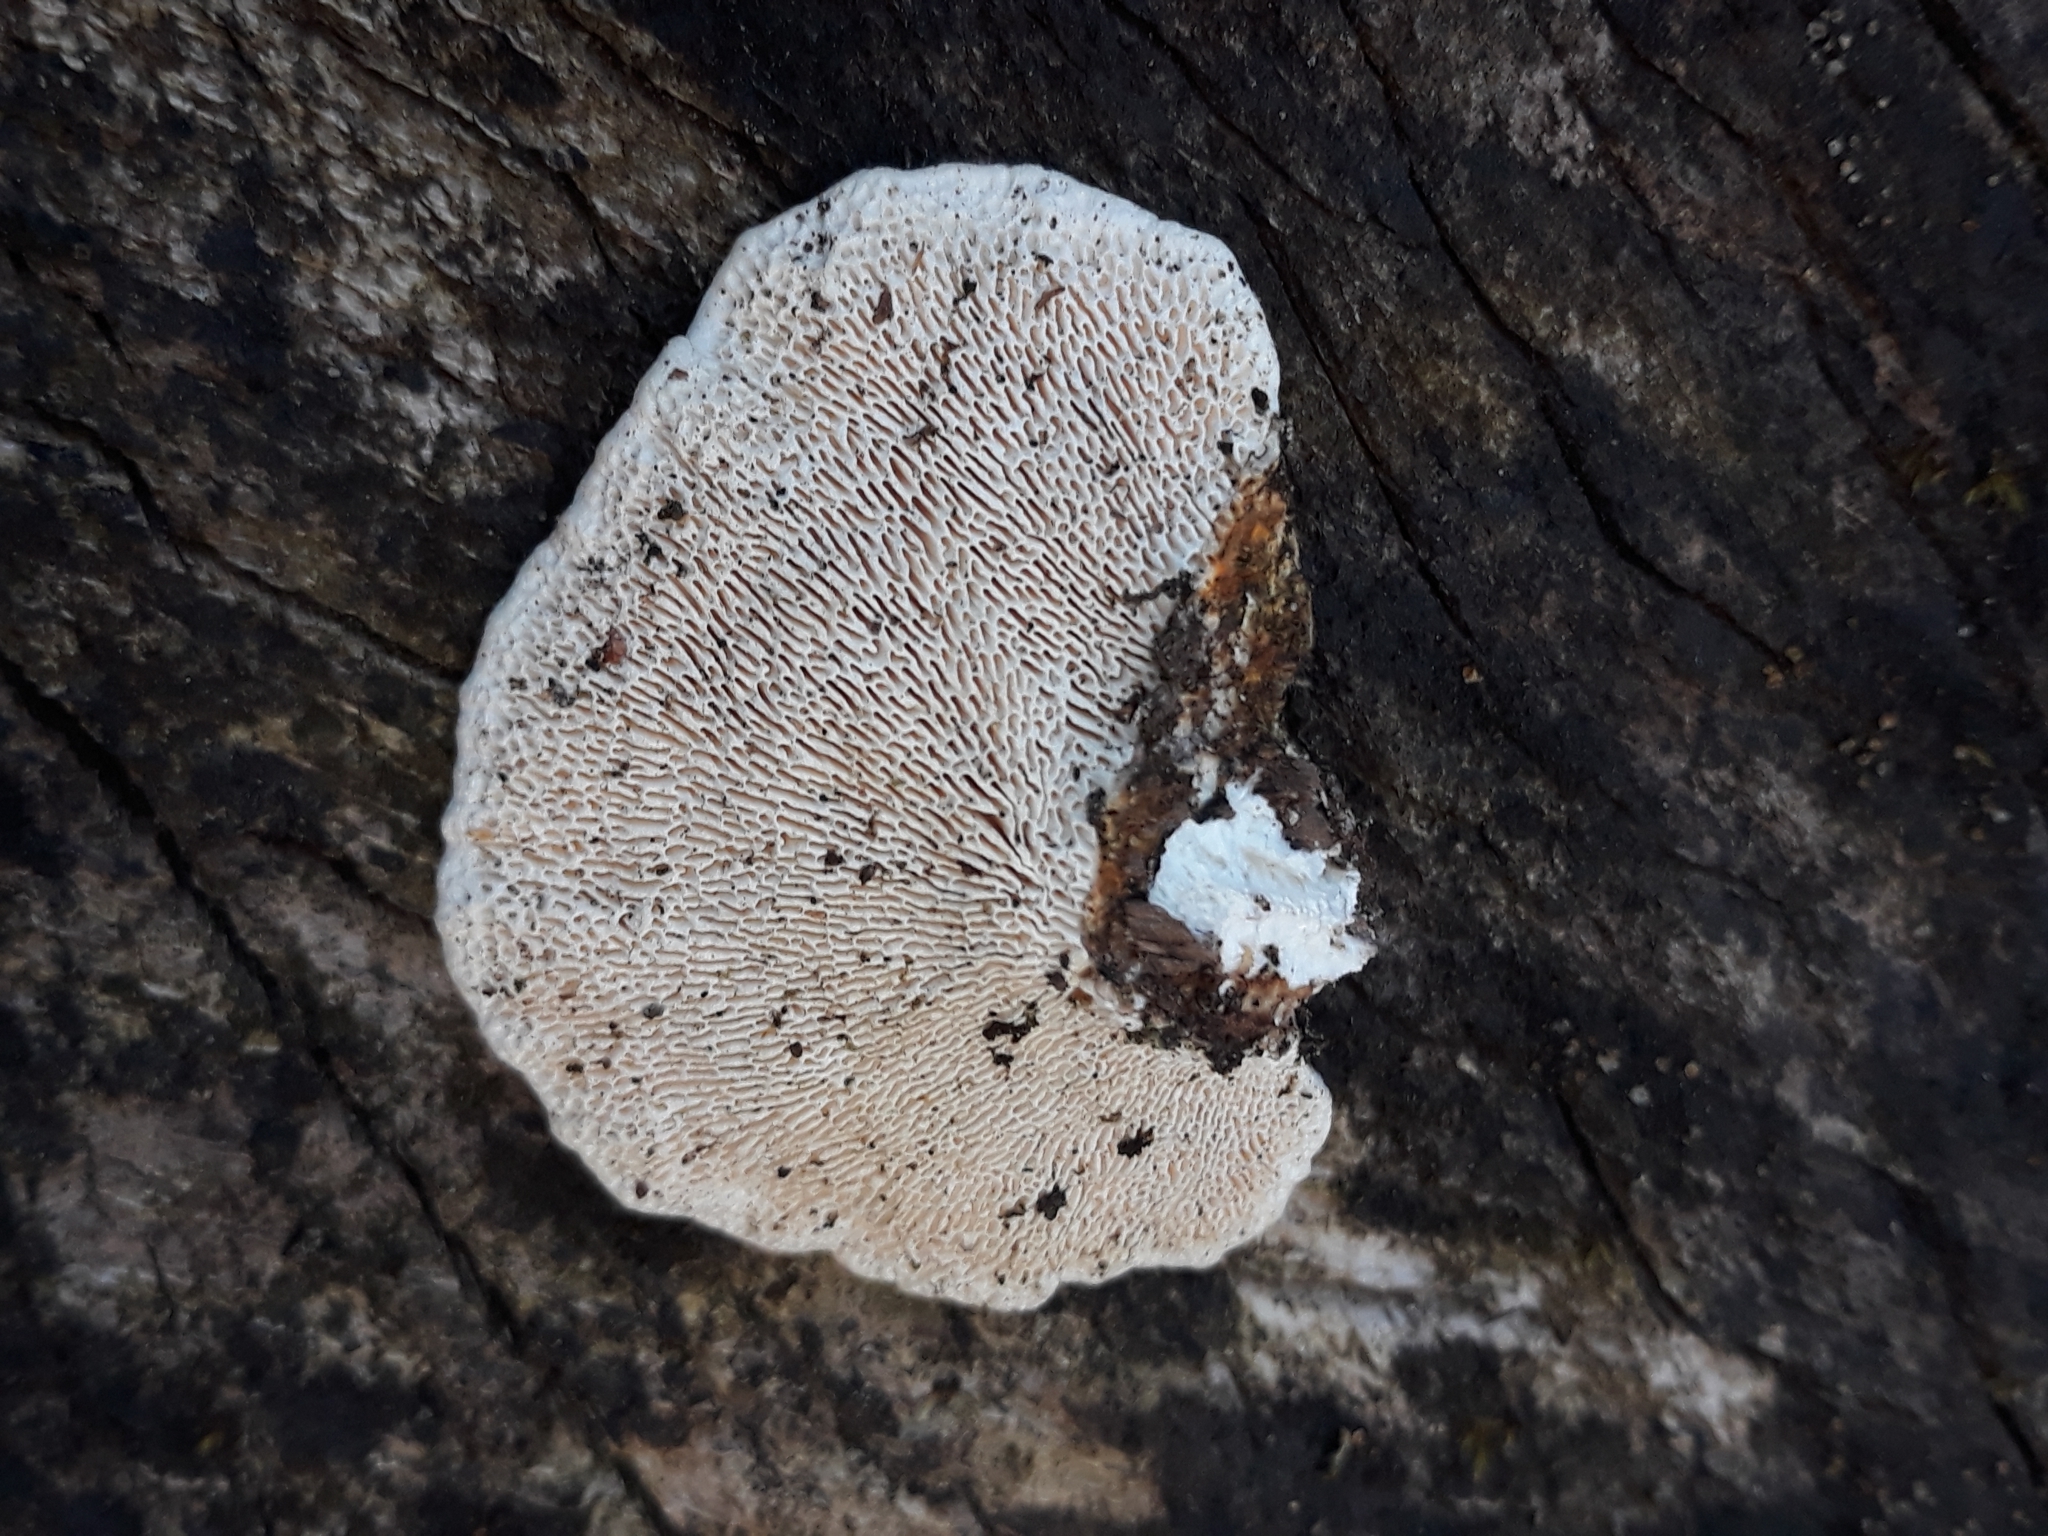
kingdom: Fungi
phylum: Basidiomycota
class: Agaricomycetes
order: Polyporales
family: Polyporaceae
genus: Trametes
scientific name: Trametes gibbosa
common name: Lumpy bracket
